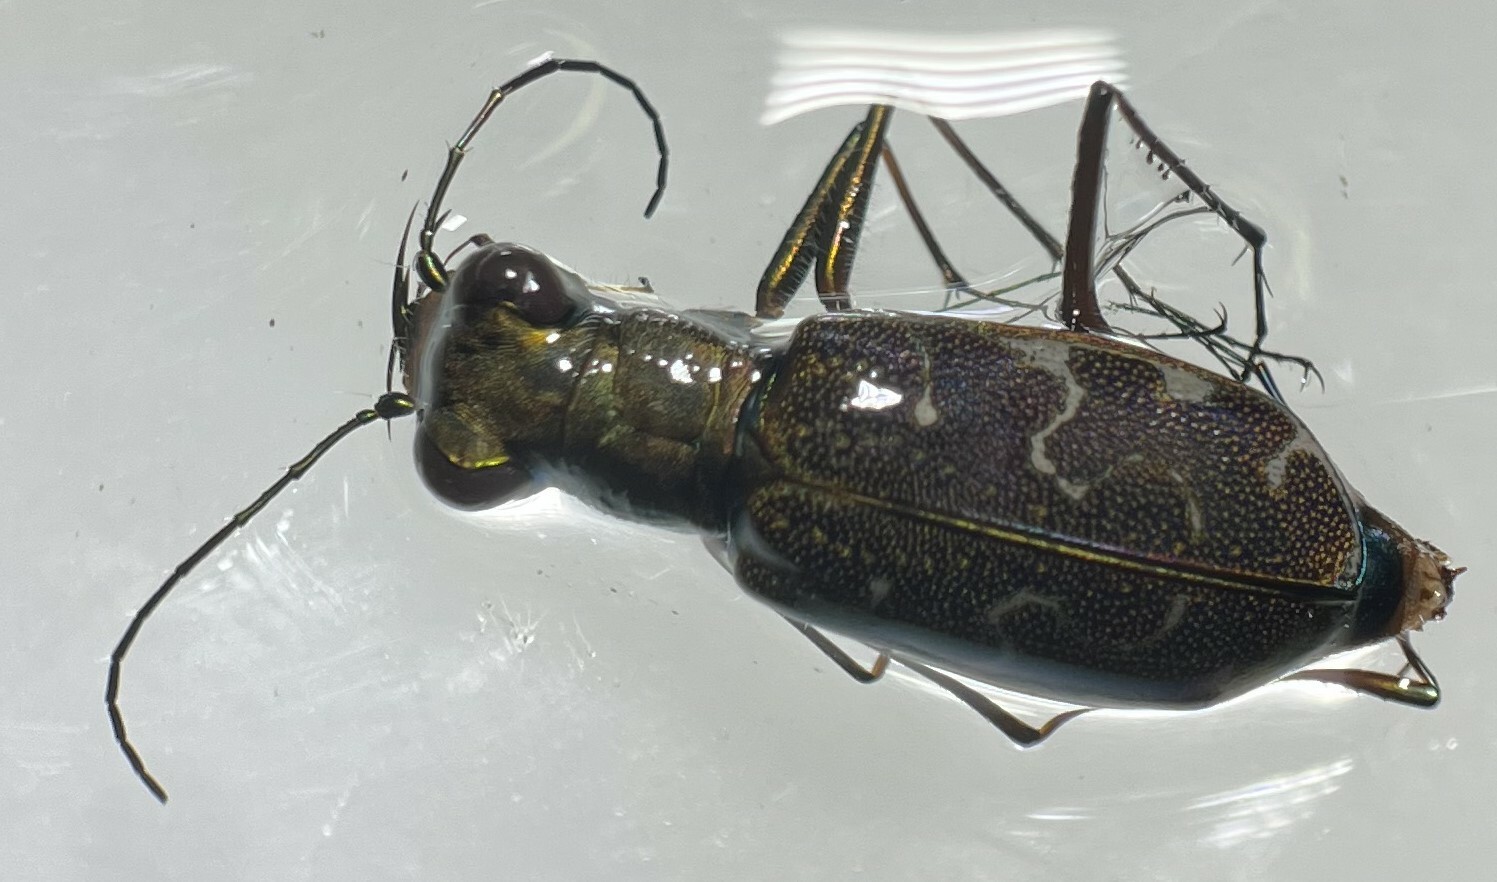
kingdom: Animalia
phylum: Arthropoda
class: Insecta
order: Coleoptera
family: Carabidae
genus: Cicindela
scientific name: Cicindela trifasciata
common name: Mudflat tiger beetle
